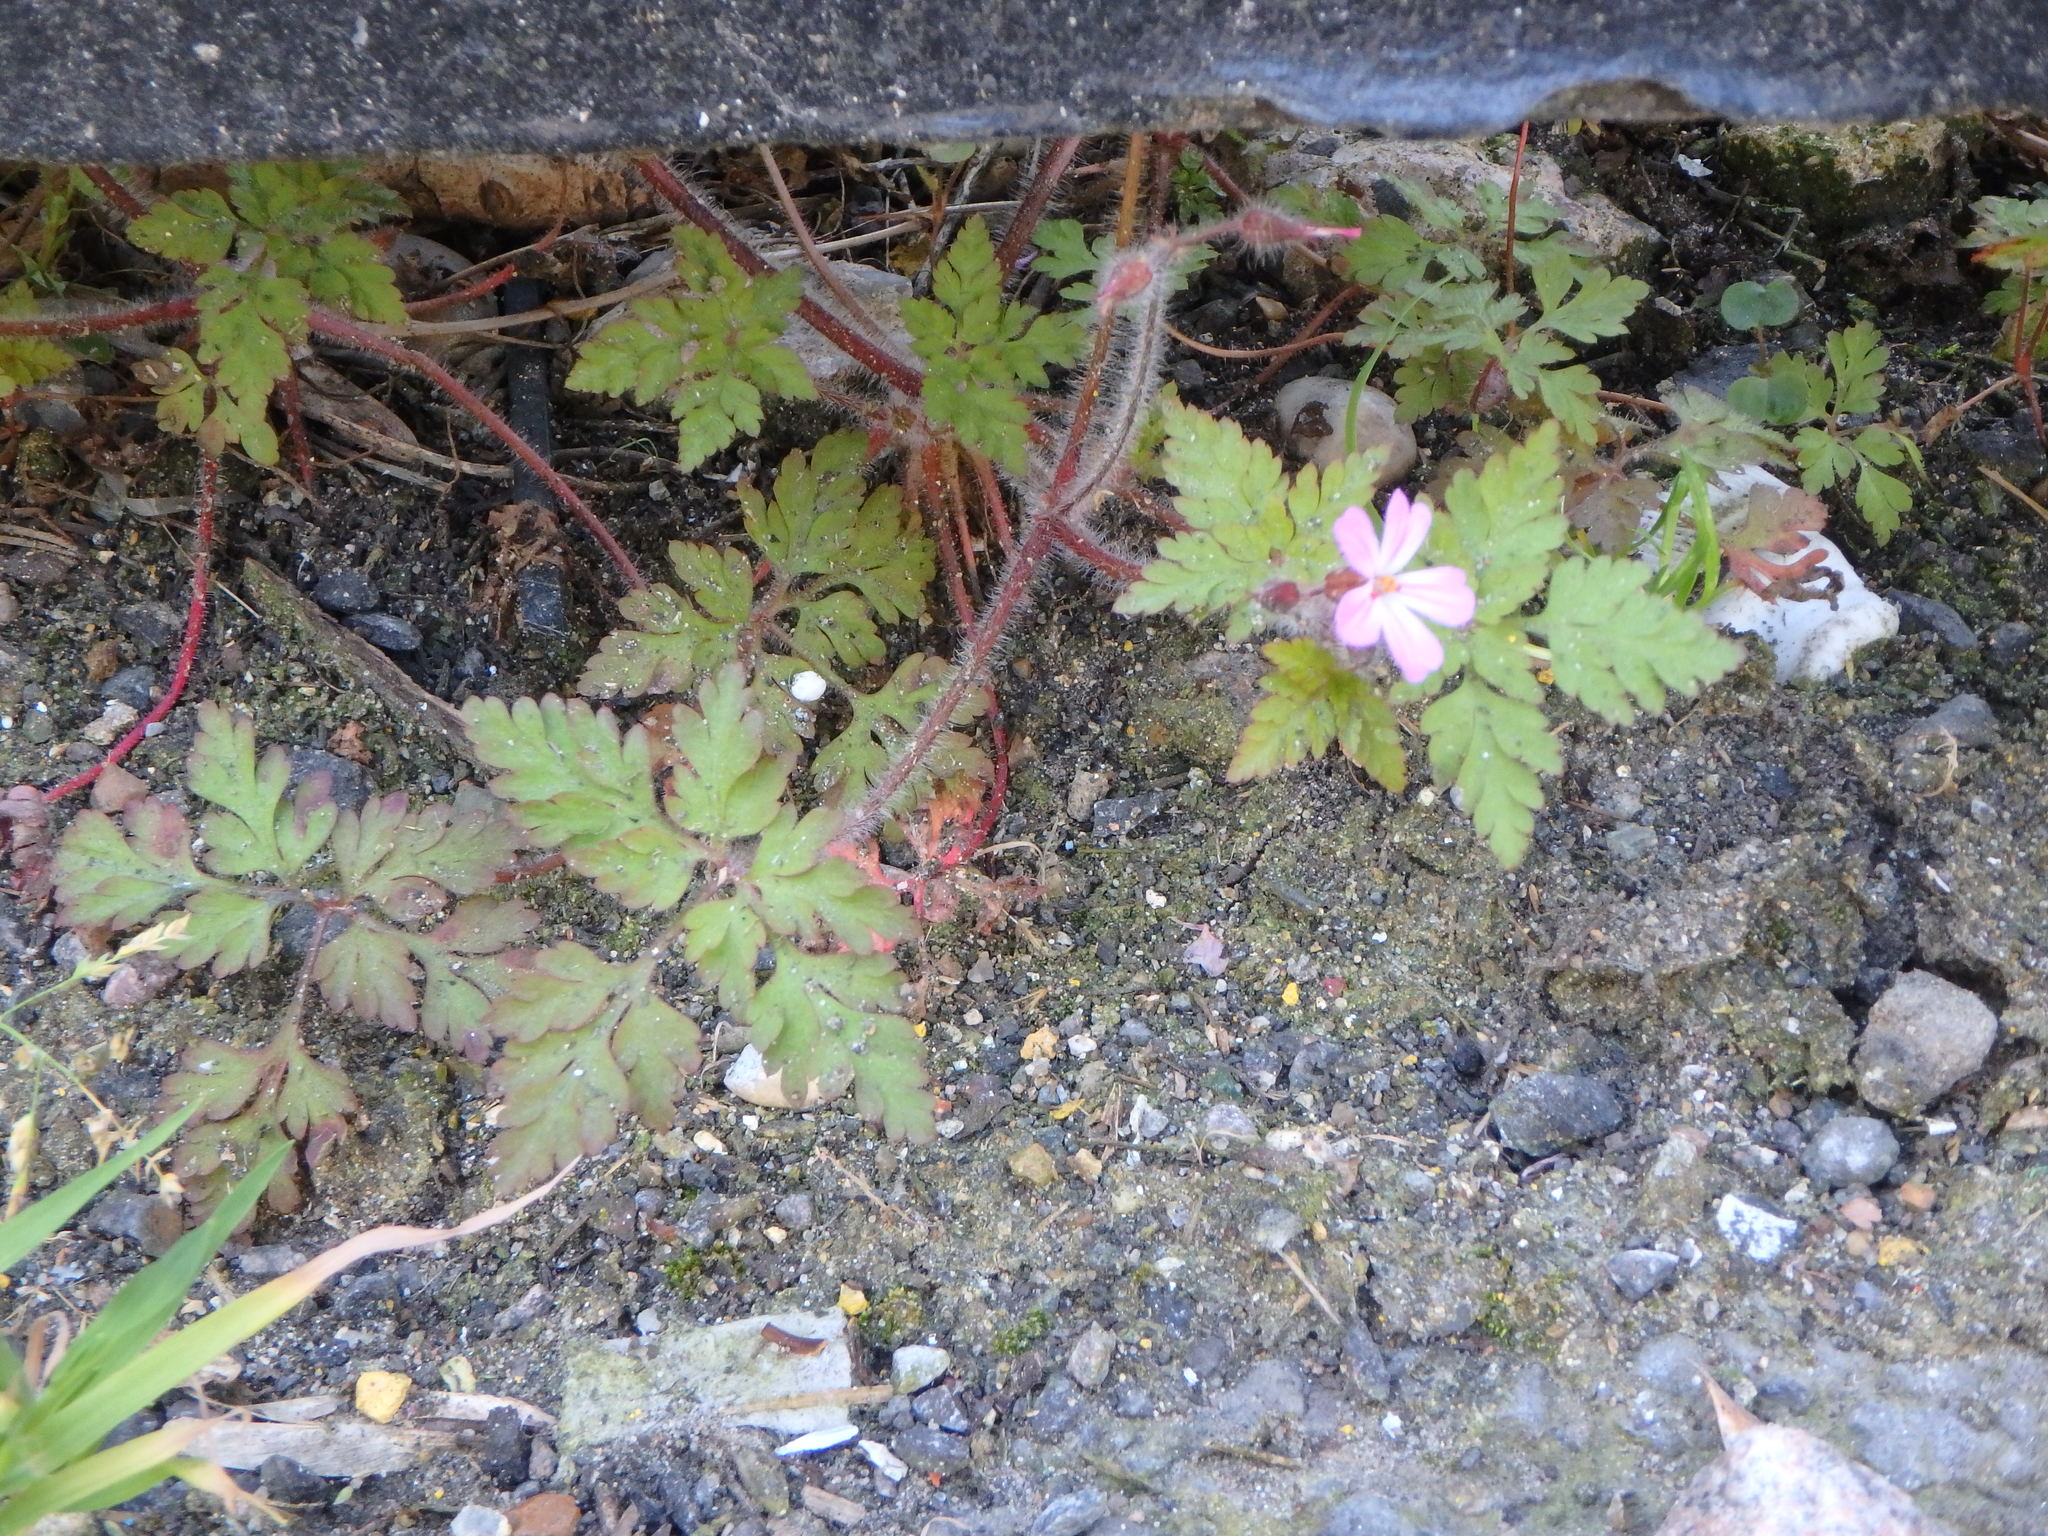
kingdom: Plantae
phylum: Tracheophyta
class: Magnoliopsida
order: Geraniales
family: Geraniaceae
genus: Geranium
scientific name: Geranium robertianum
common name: Herb-robert
